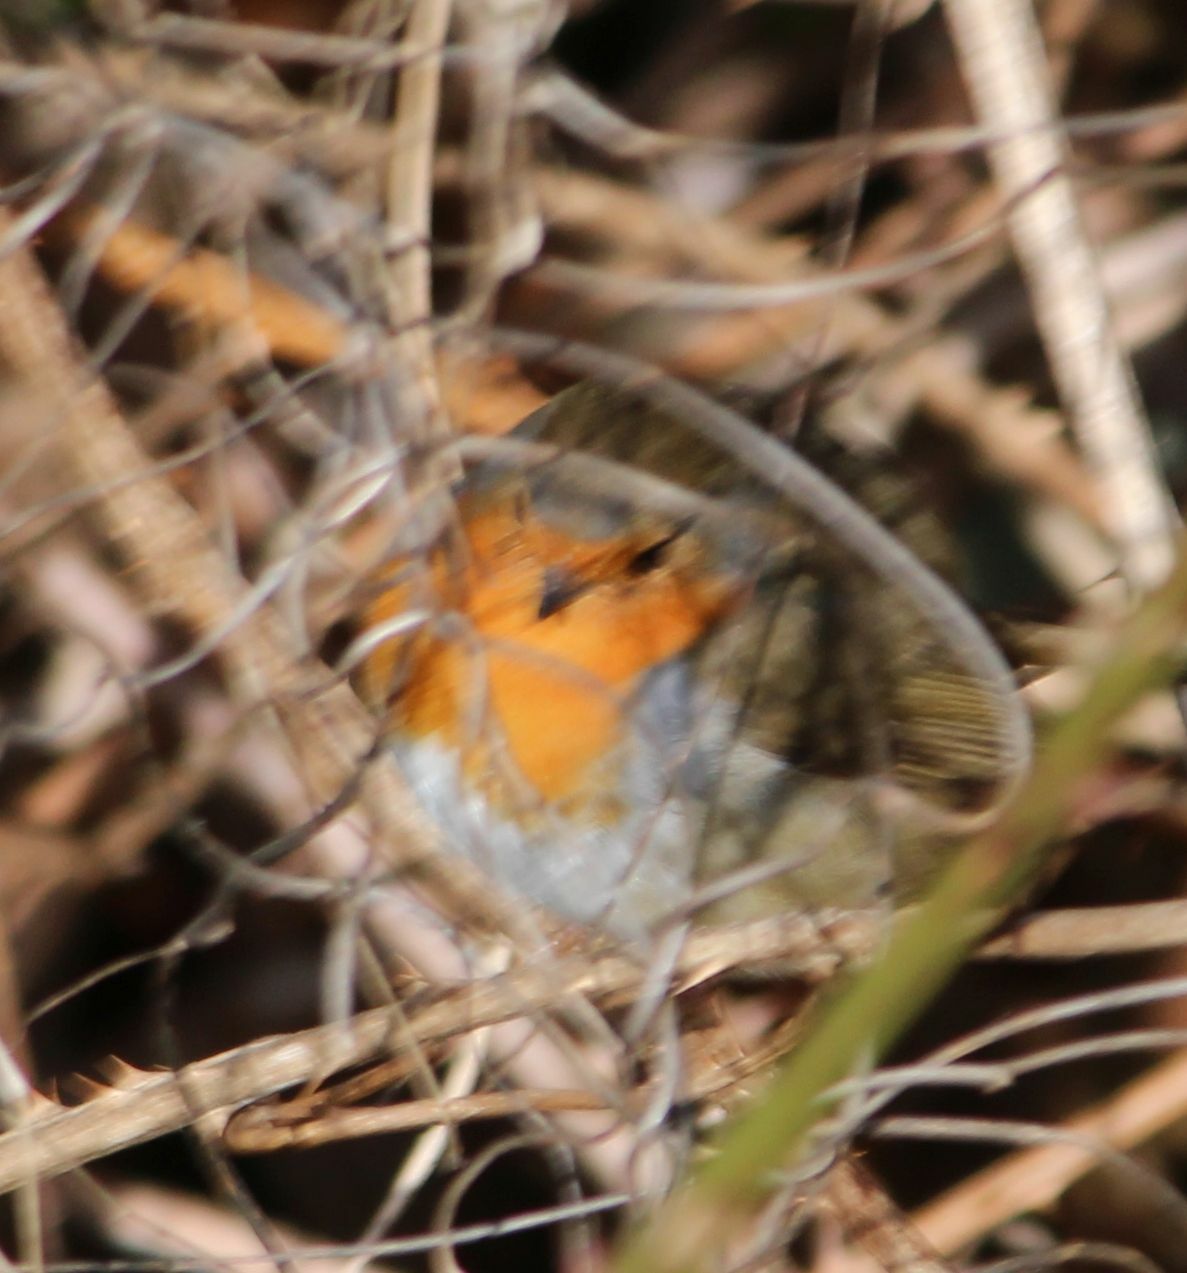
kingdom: Animalia
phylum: Chordata
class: Aves
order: Passeriformes
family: Muscicapidae
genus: Erithacus
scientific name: Erithacus rubecula
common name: European robin
